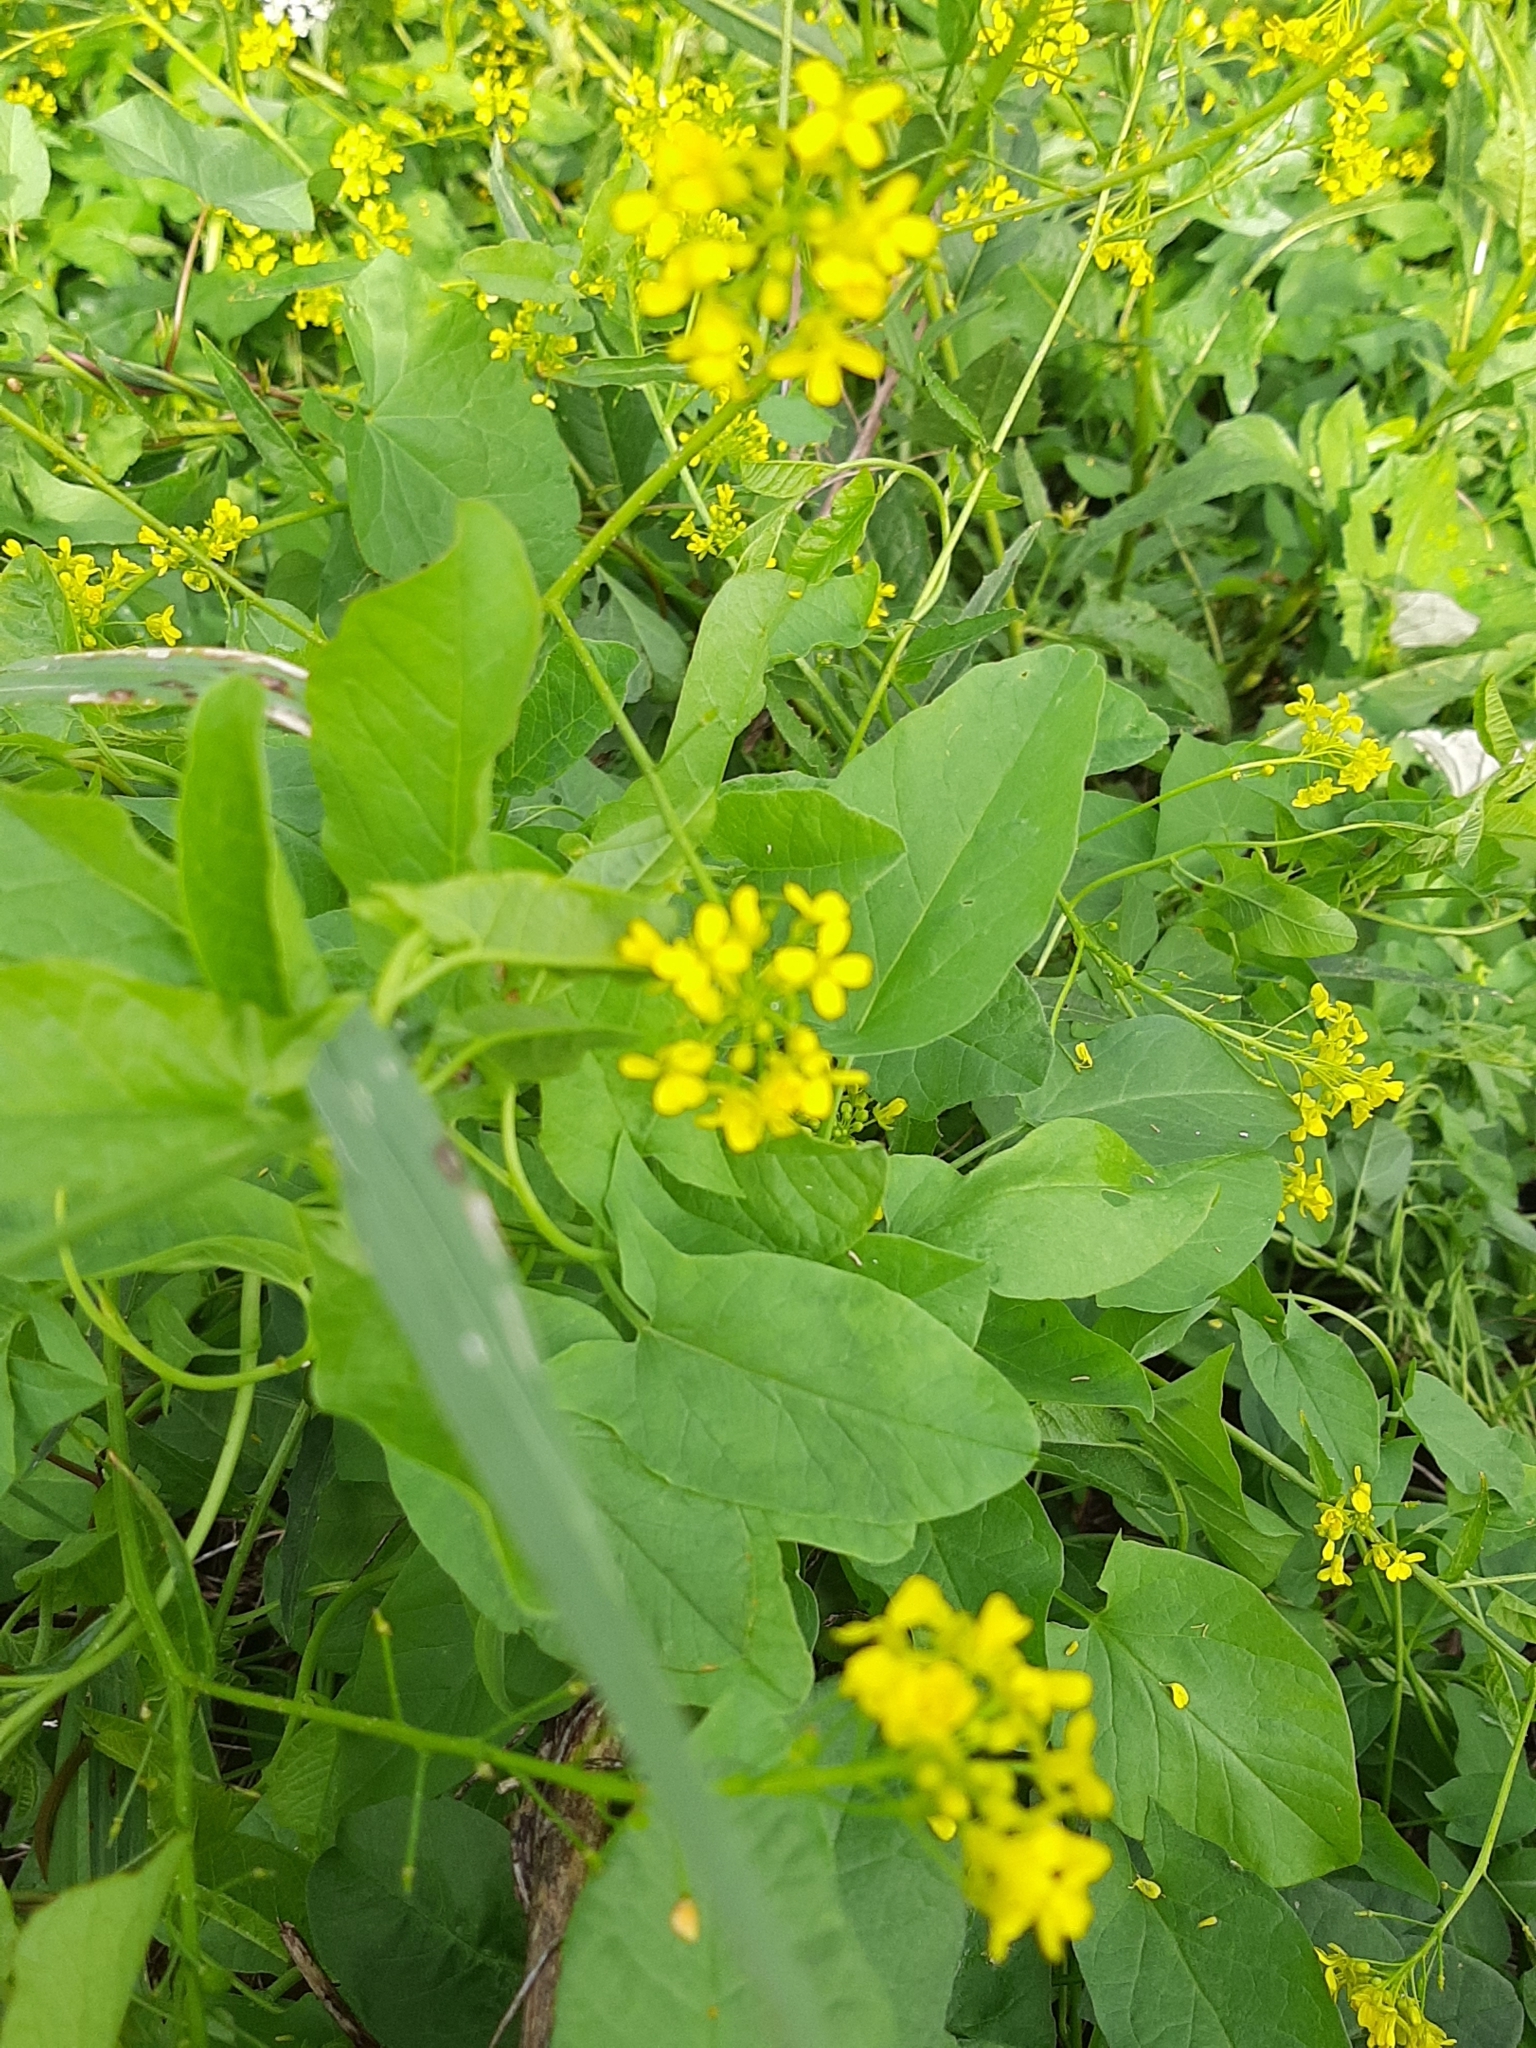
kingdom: Plantae
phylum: Tracheophyta
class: Magnoliopsida
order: Brassicales
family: Brassicaceae
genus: Bunias
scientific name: Bunias orientalis
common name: Warty-cabbage
